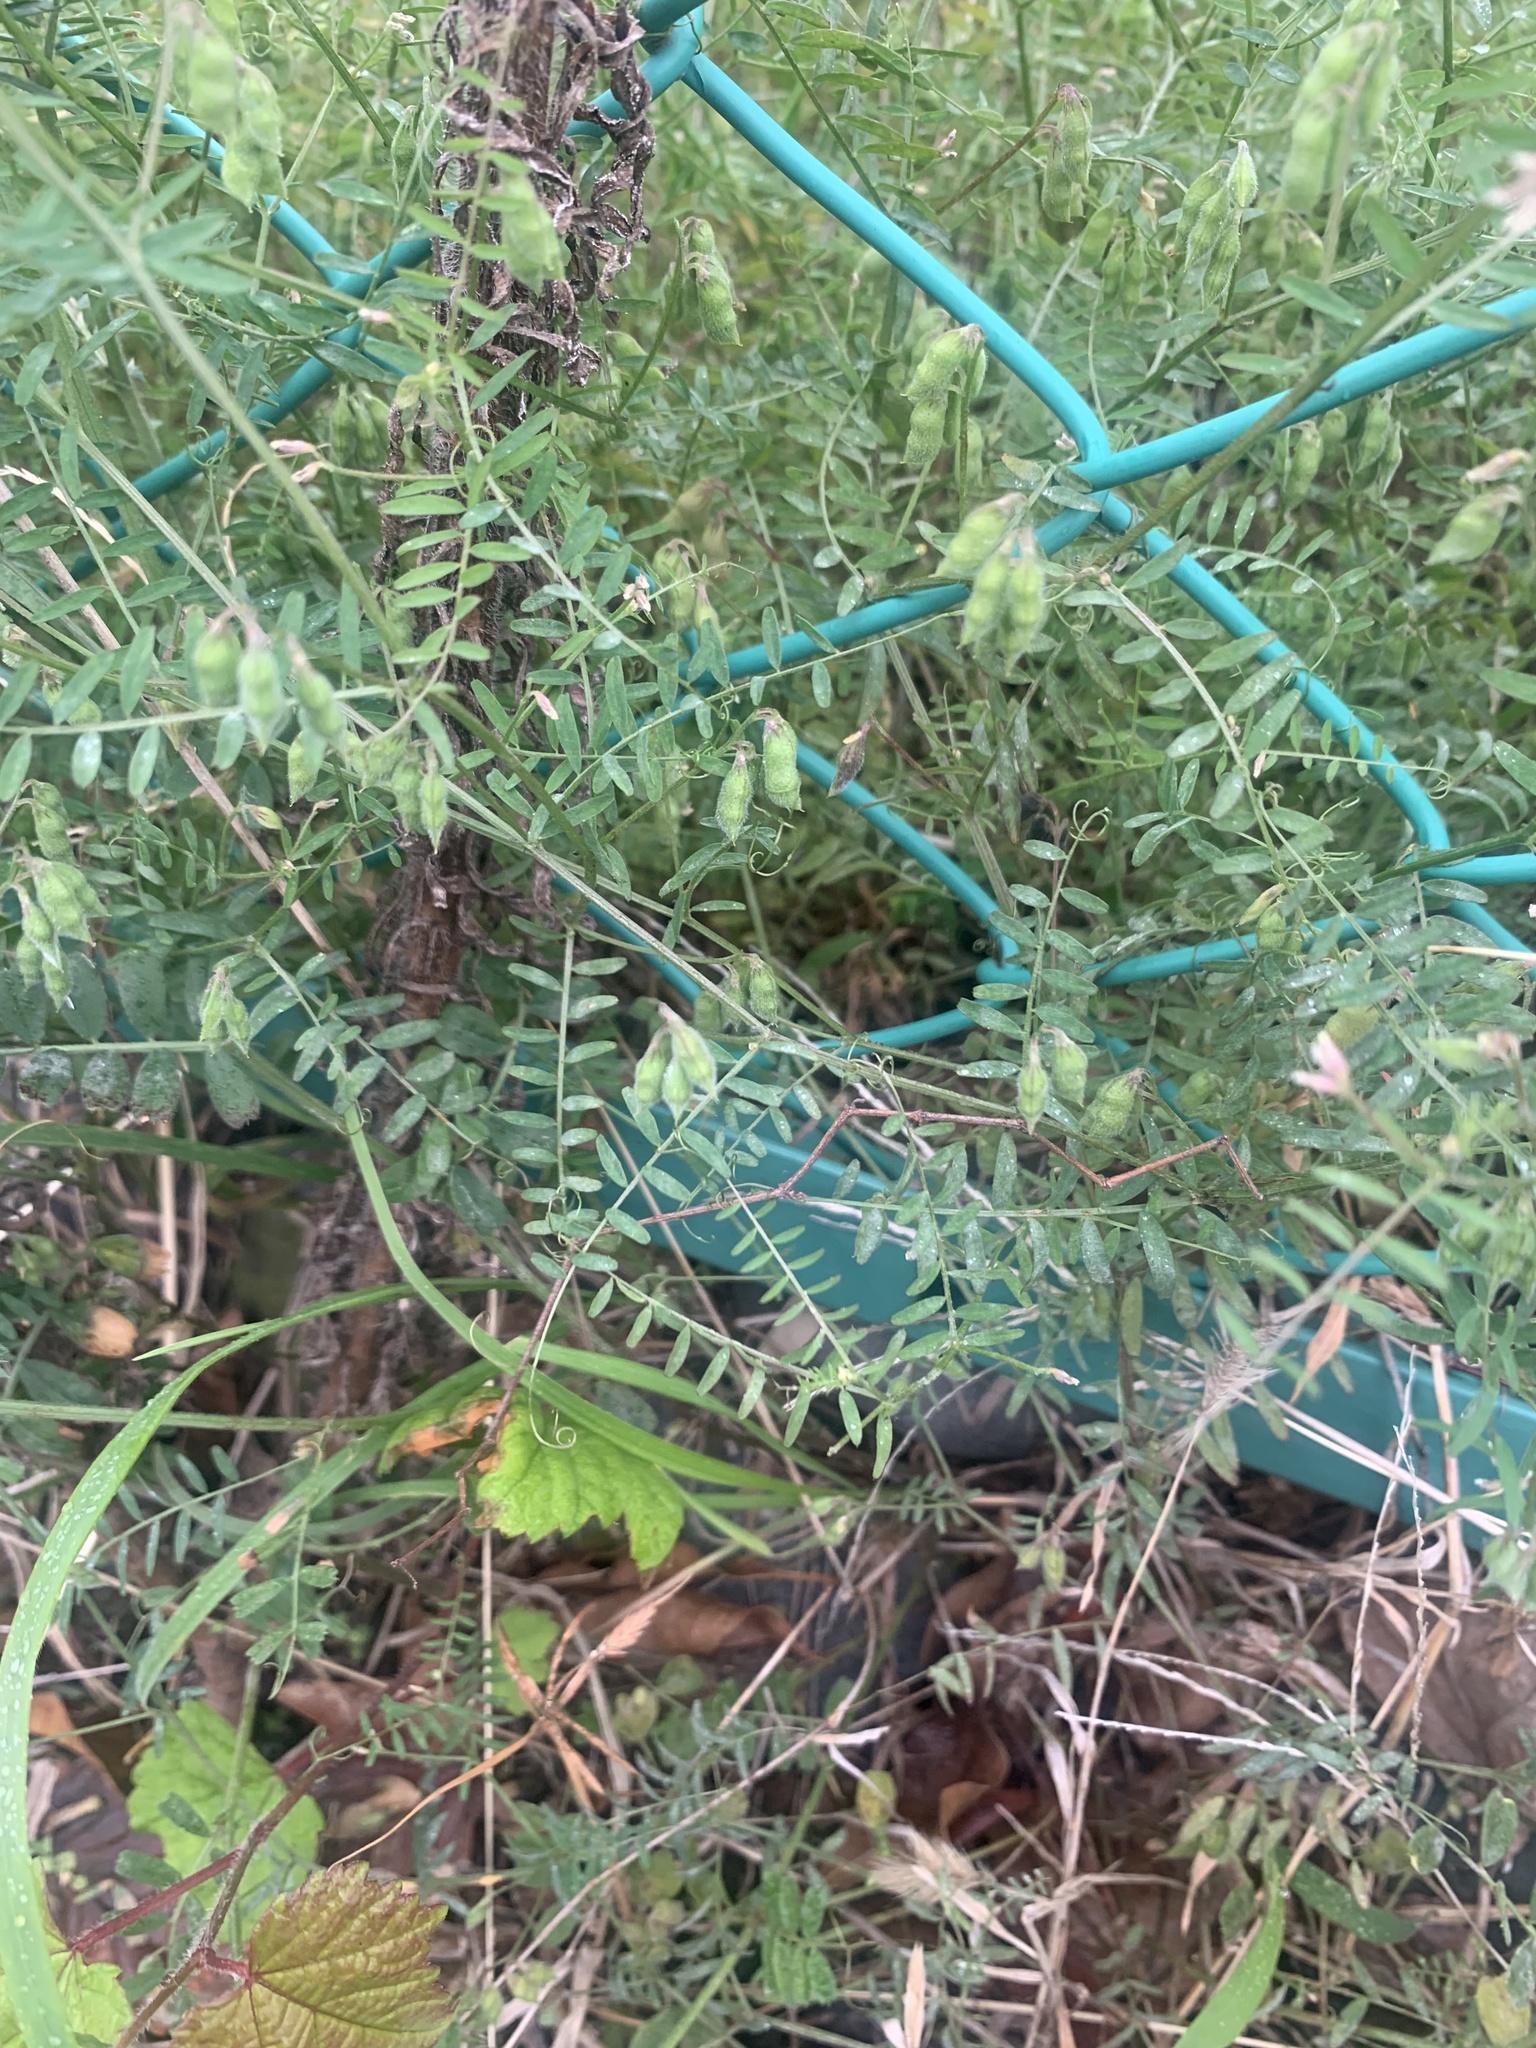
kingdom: Plantae
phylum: Tracheophyta
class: Magnoliopsida
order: Fabales
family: Fabaceae
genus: Vicia
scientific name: Vicia hirsuta
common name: Tiny vetch
